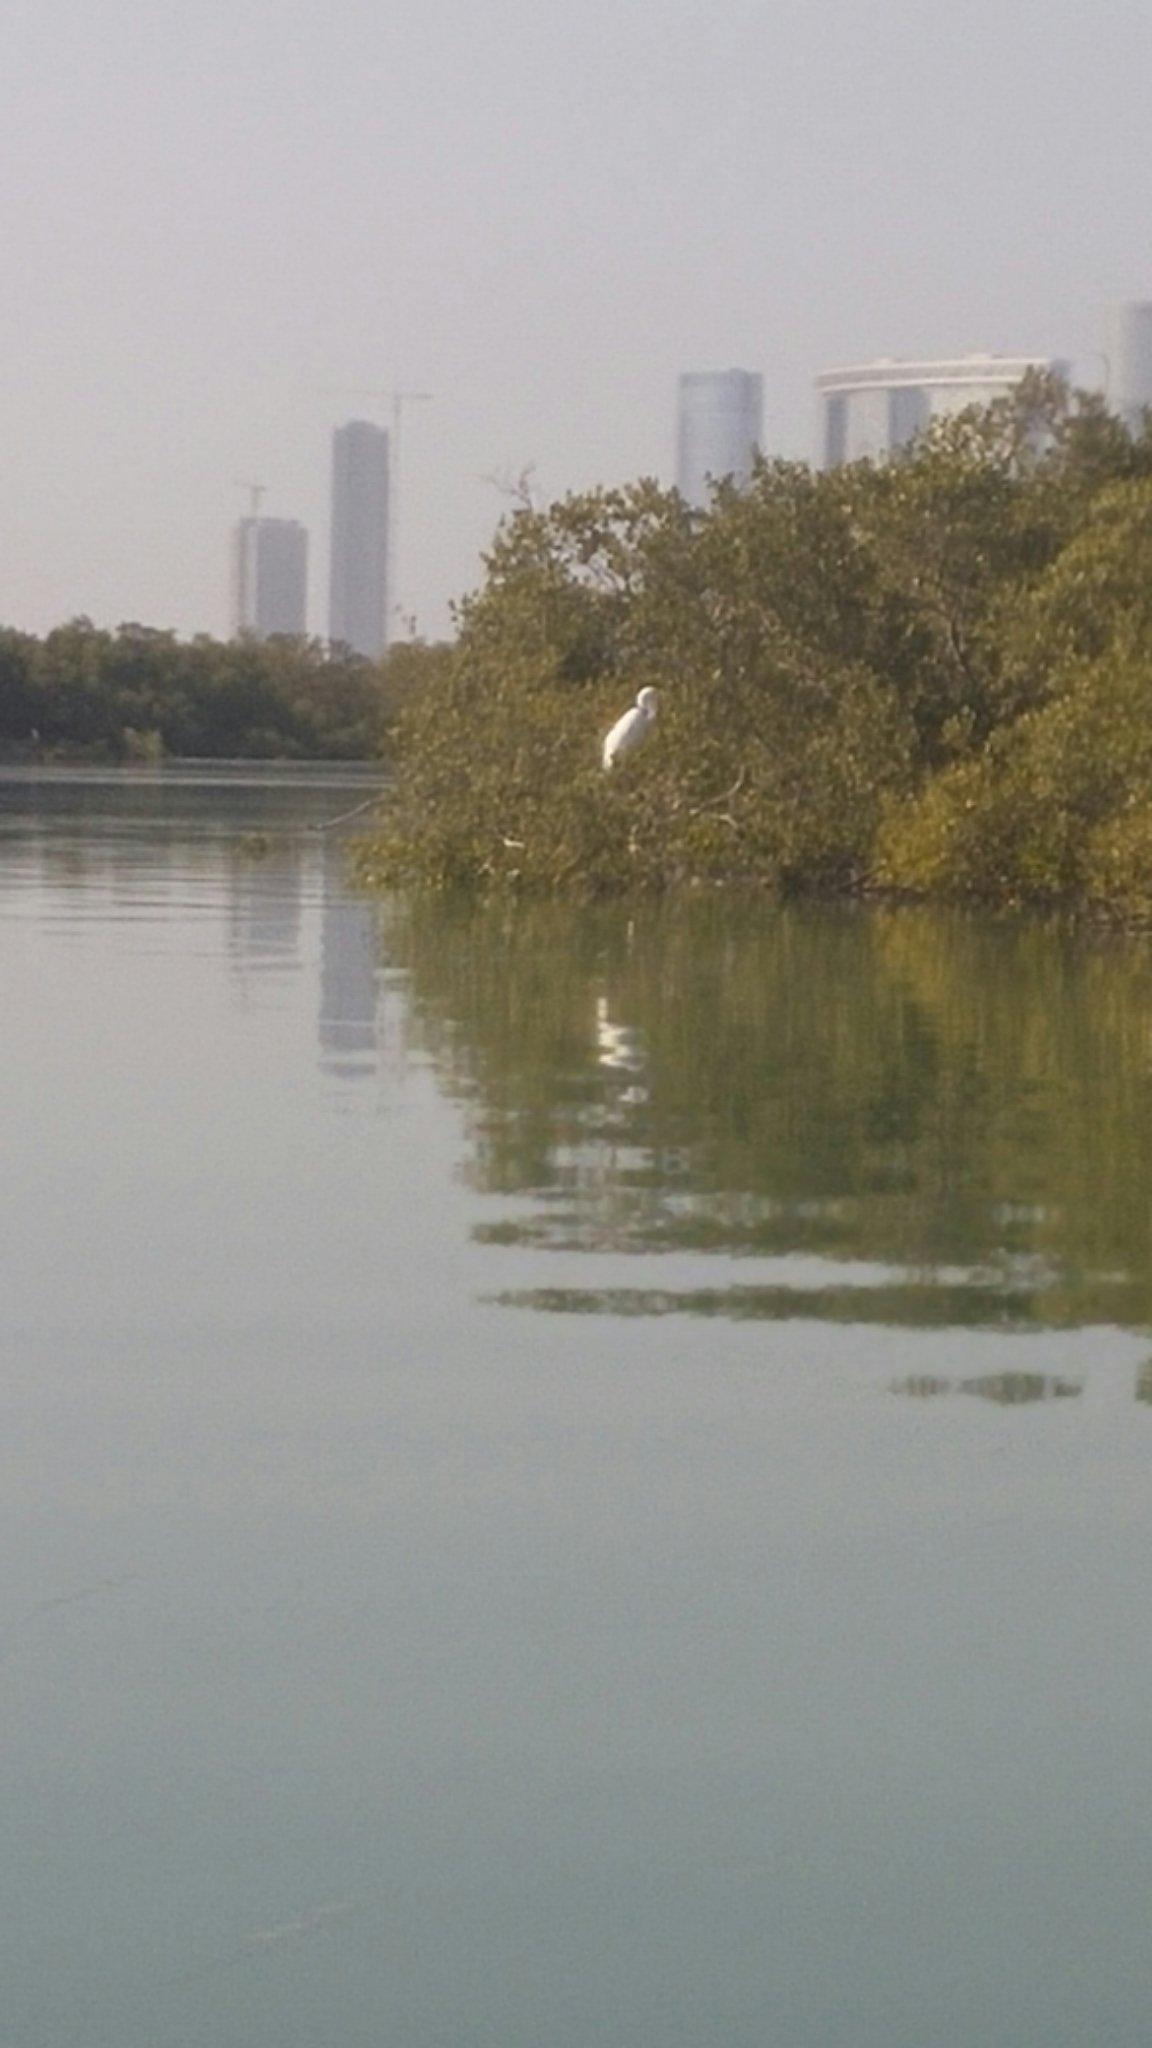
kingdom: Animalia
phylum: Chordata
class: Aves
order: Pelecaniformes
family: Ardeidae
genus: Ardea
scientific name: Ardea alba
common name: Great egret
